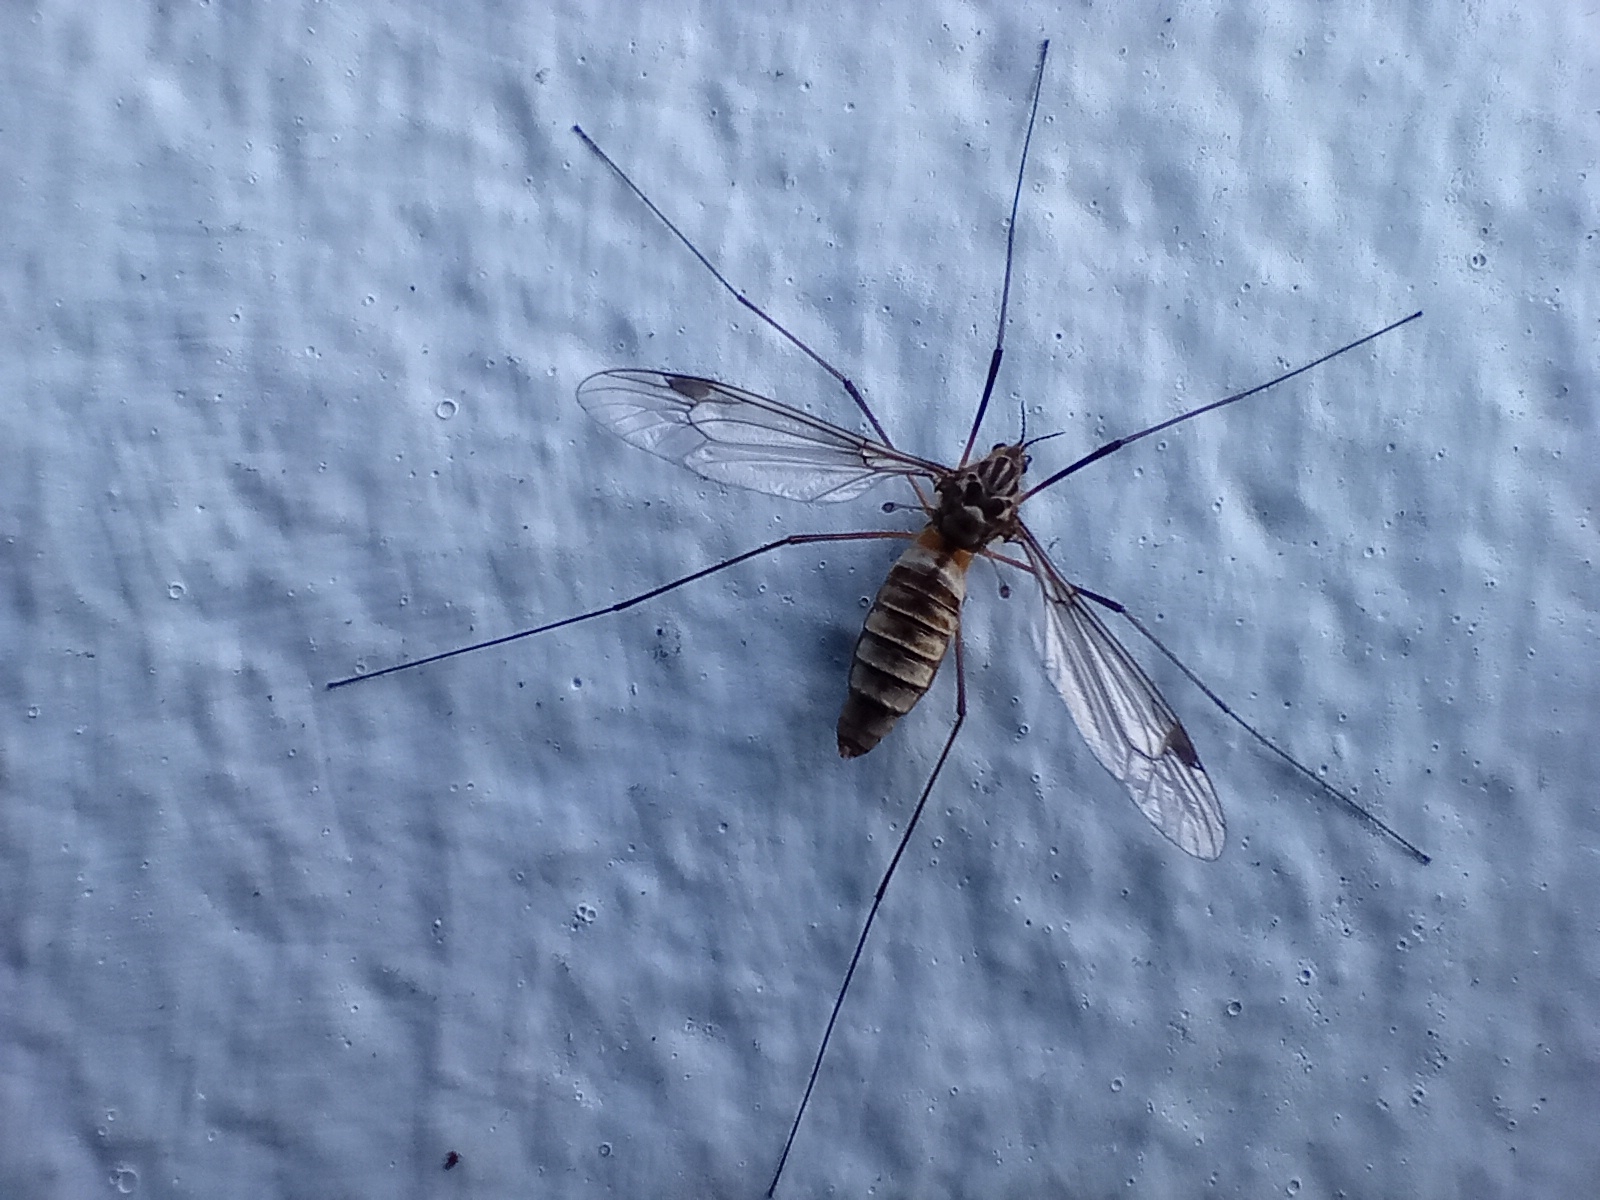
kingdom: Animalia
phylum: Arthropoda
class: Insecta
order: Diptera
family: Tipulidae
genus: Leptotarsus
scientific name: Leptotarsus vulpinus
